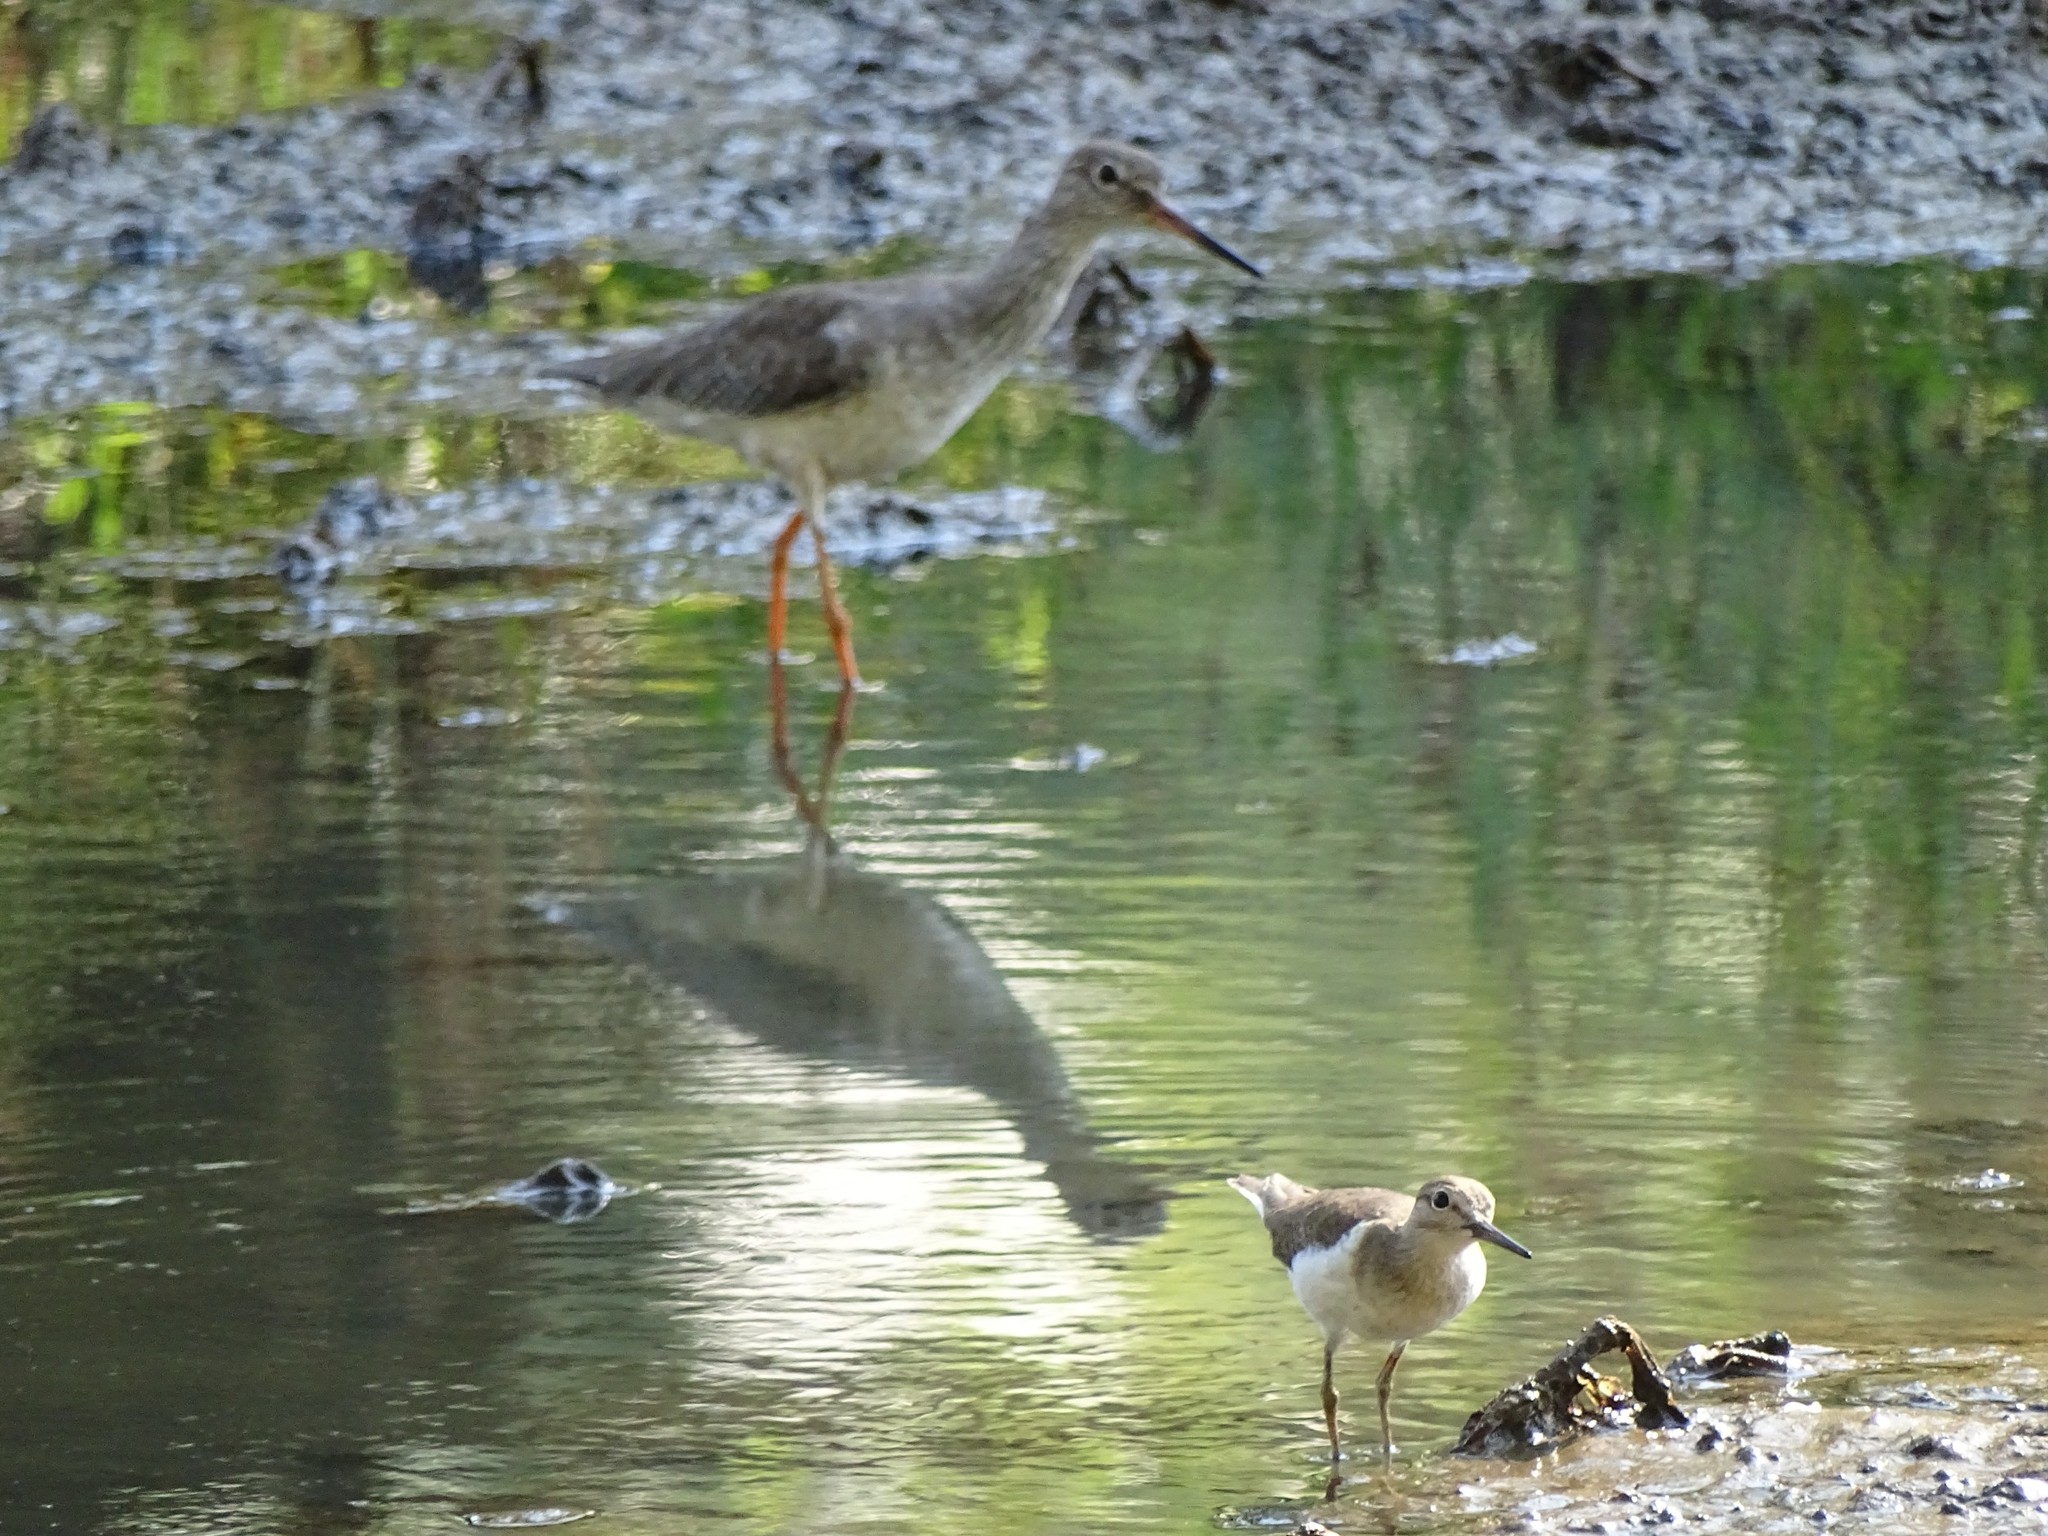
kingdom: Animalia
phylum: Chordata
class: Aves
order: Charadriiformes
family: Scolopacidae
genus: Tringa
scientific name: Tringa totanus
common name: Common redshank
